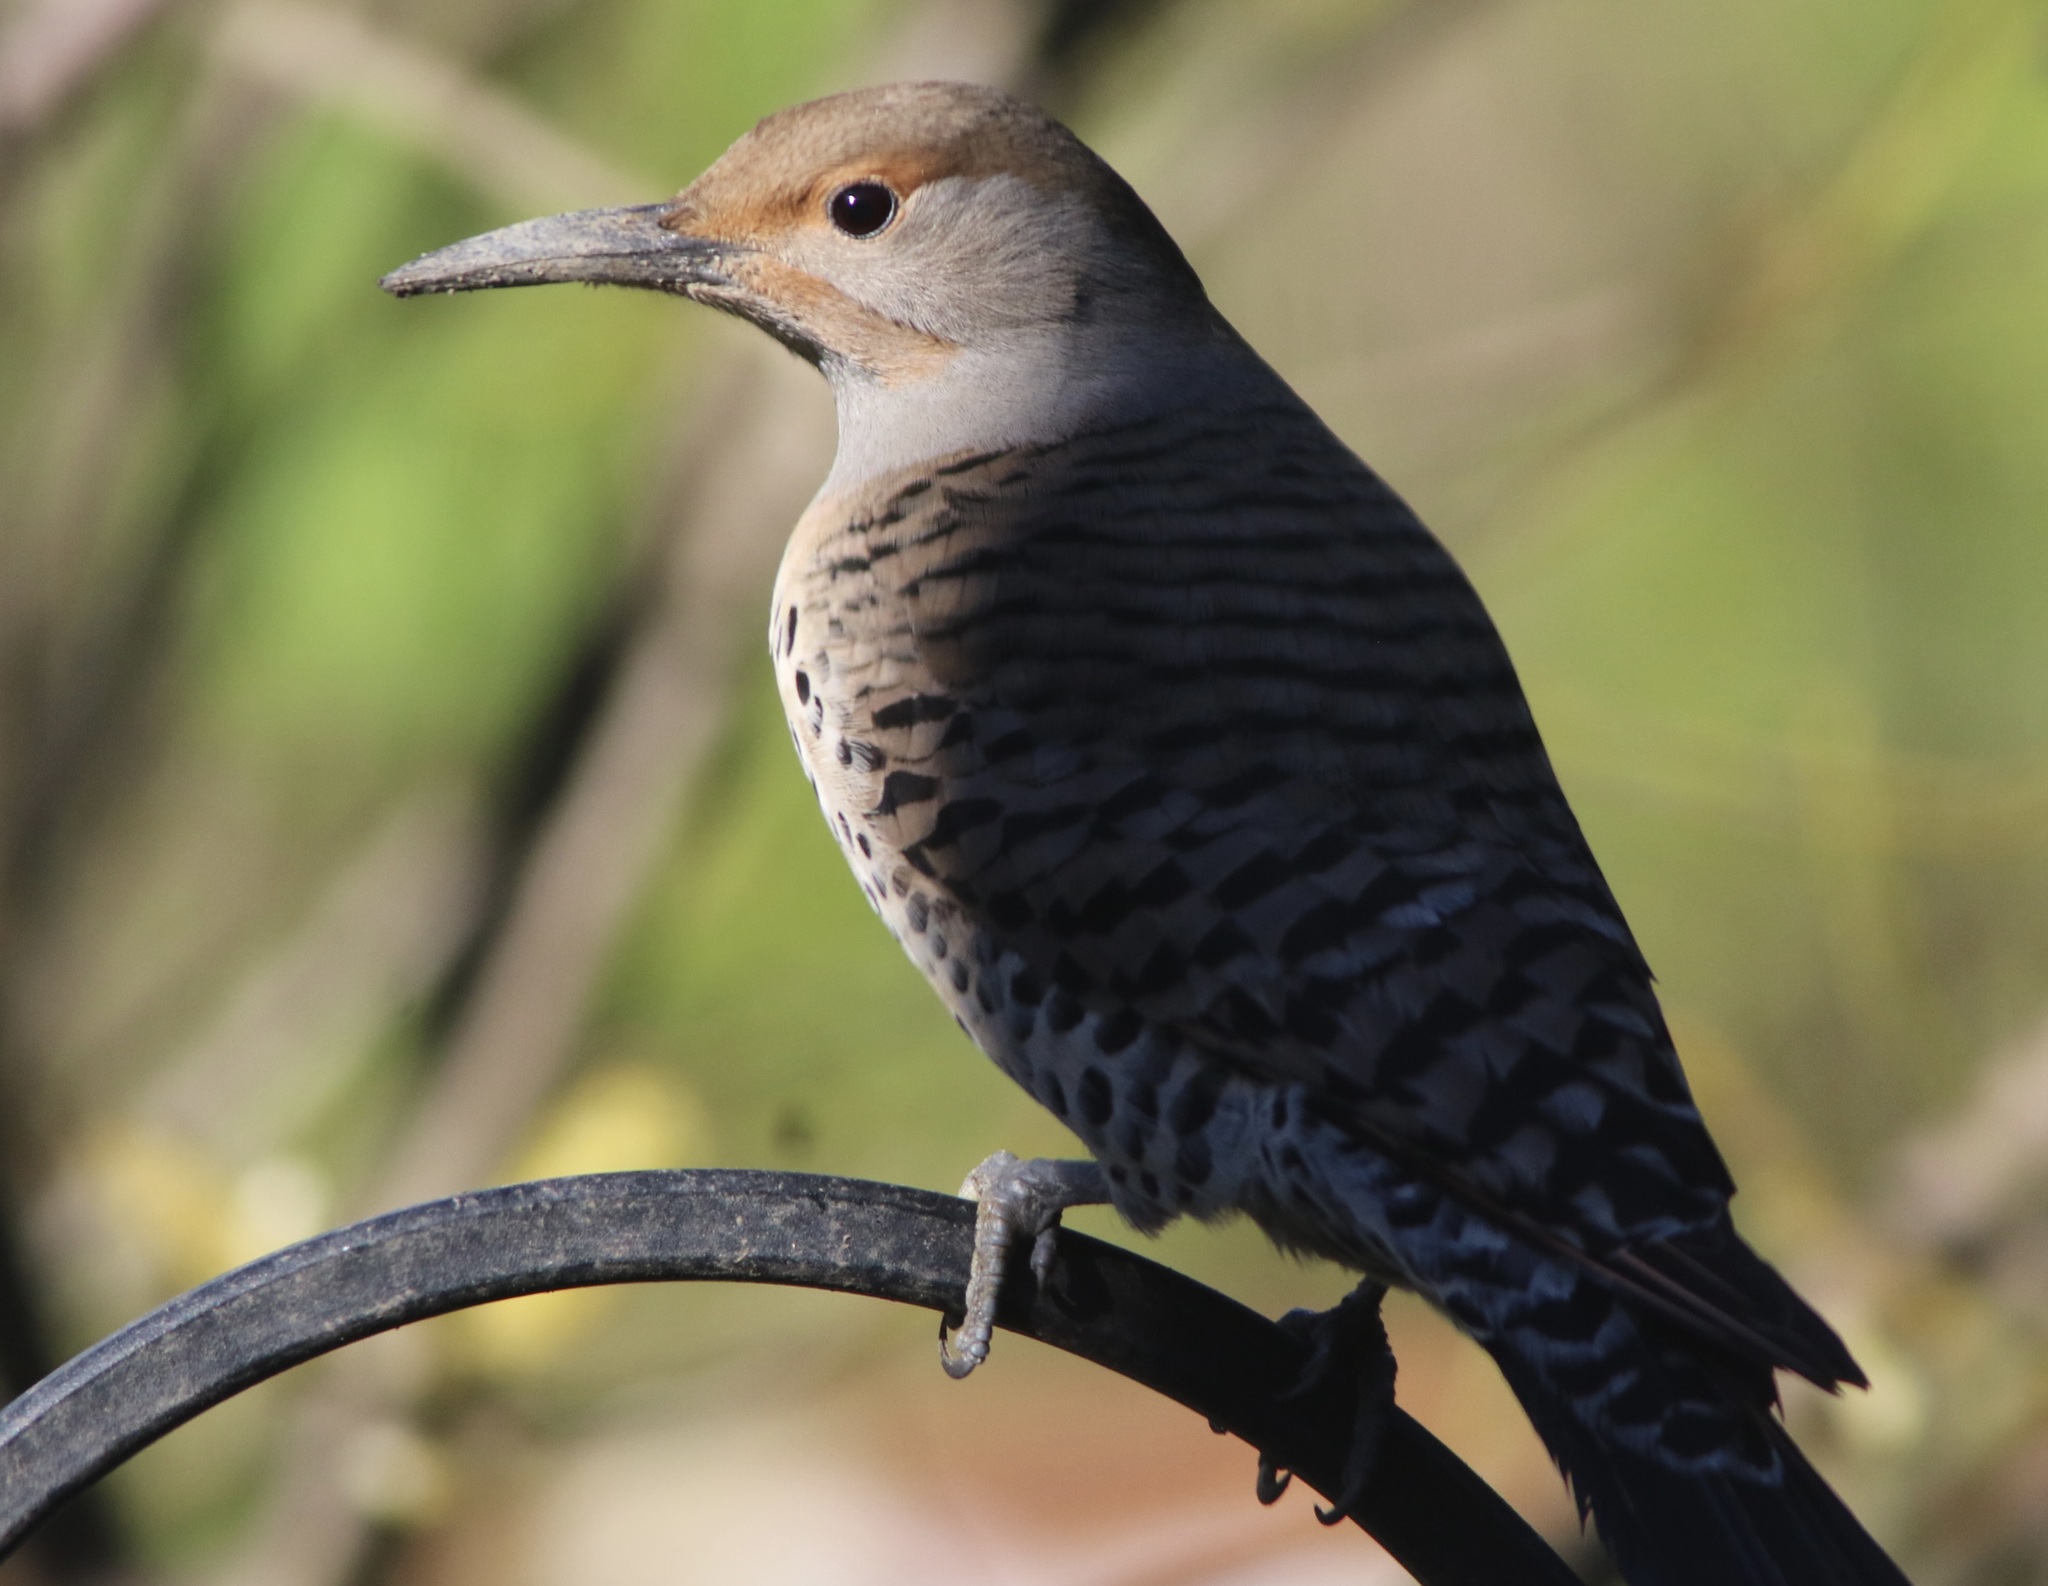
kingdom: Animalia
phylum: Chordata
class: Aves
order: Piciformes
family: Picidae
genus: Colaptes
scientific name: Colaptes auratus
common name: Northern flicker
